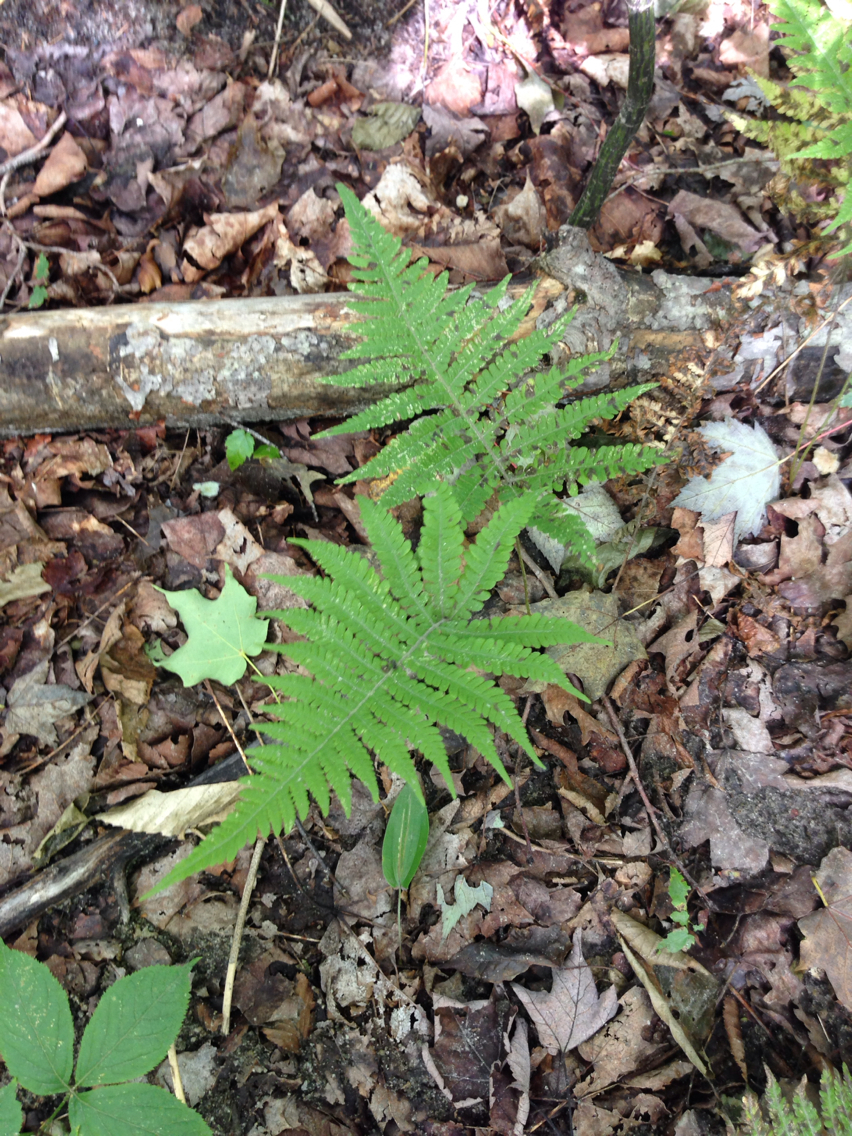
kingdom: Plantae
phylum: Tracheophyta
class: Polypodiopsida
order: Polypodiales
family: Thelypteridaceae
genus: Phegopteris
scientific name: Phegopteris connectilis
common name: Beech fern
